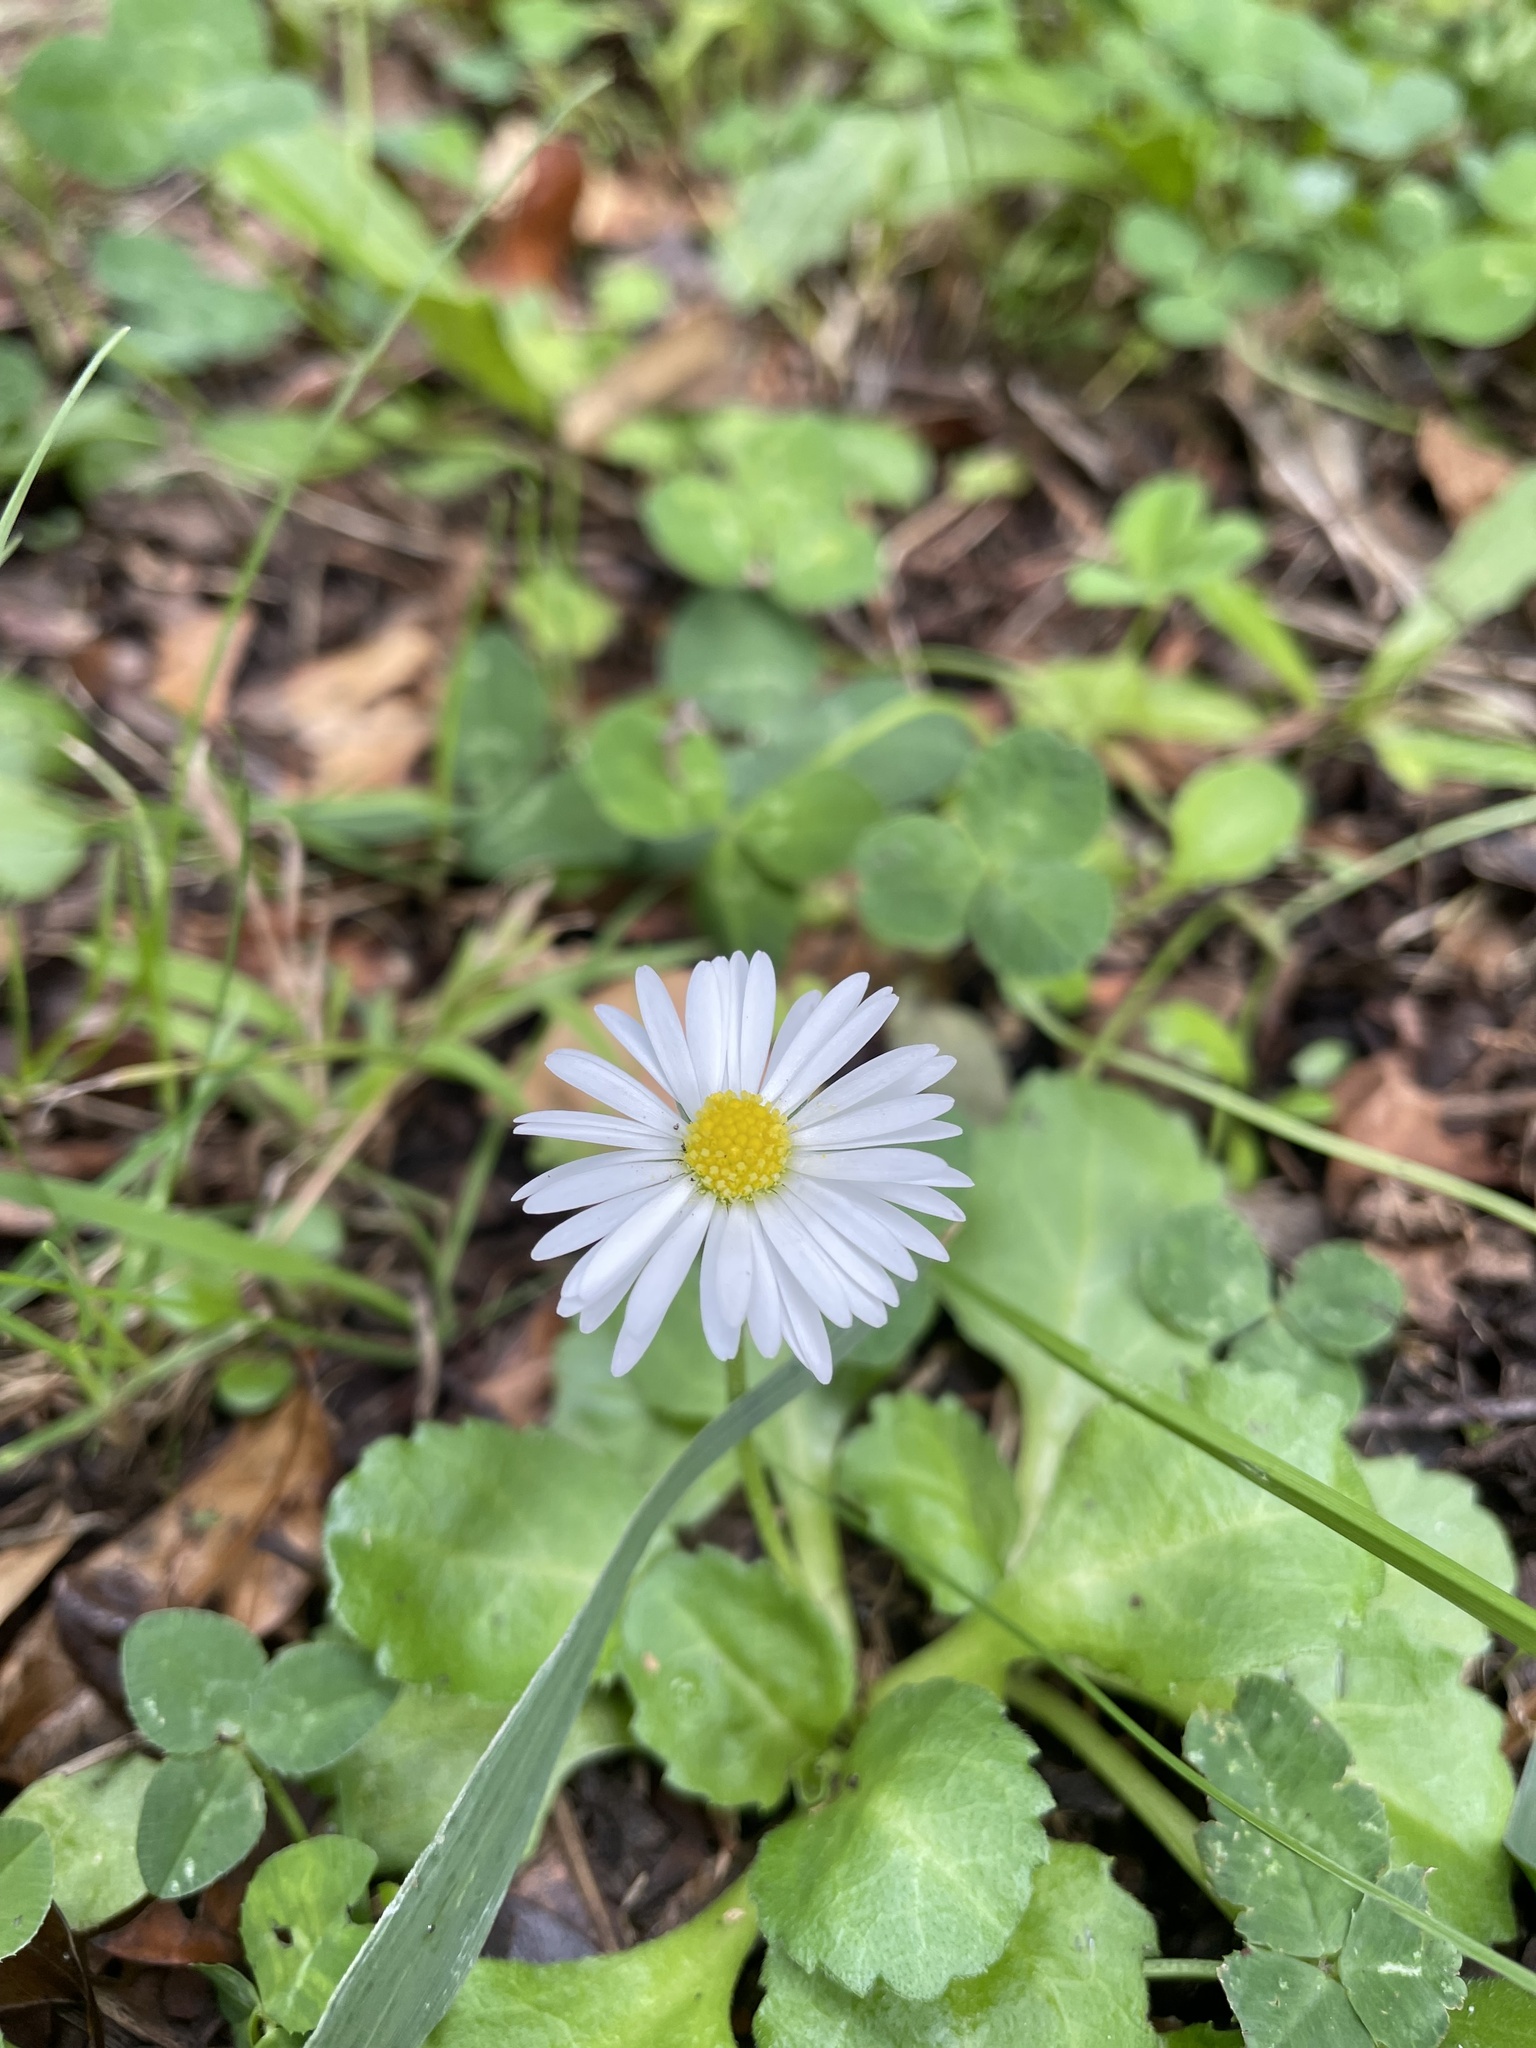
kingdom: Plantae
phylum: Tracheophyta
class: Magnoliopsida
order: Asterales
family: Asteraceae
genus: Bellis
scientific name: Bellis perennis
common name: Lawndaisy
